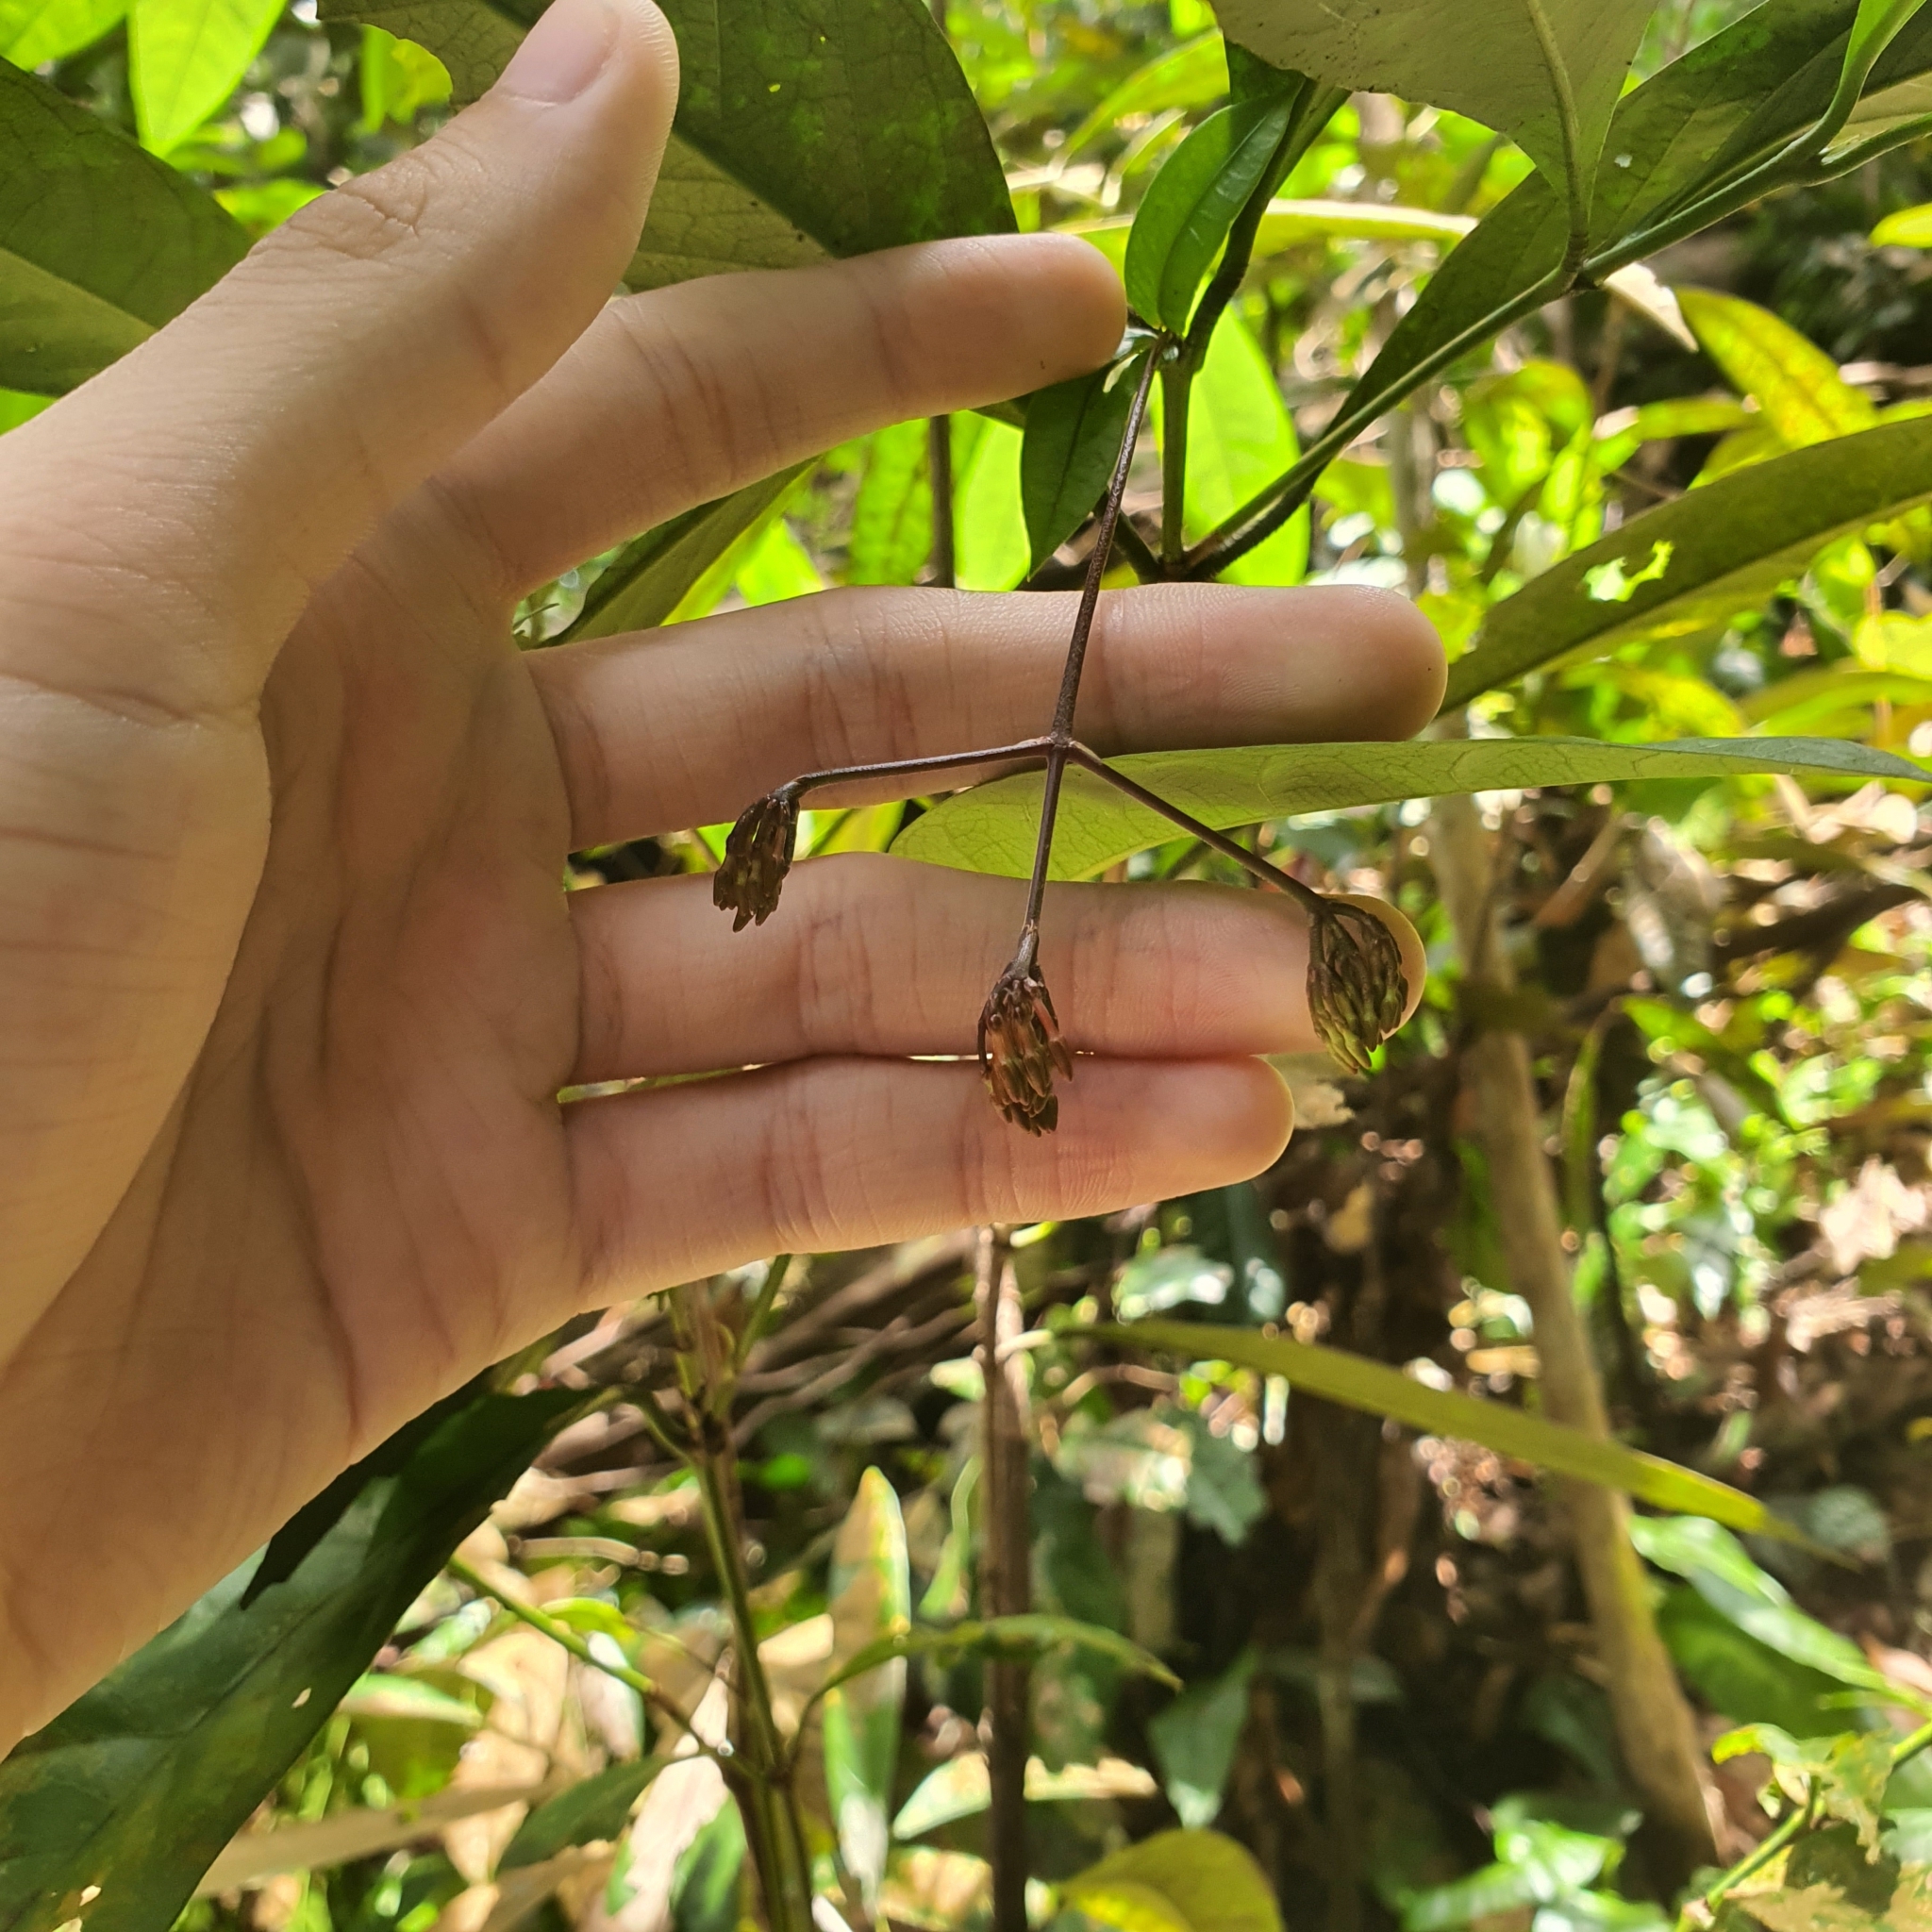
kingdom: Plantae
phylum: Tracheophyta
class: Magnoliopsida
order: Gentianales
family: Rubiaceae
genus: Ixora
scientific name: Ixora pendula
